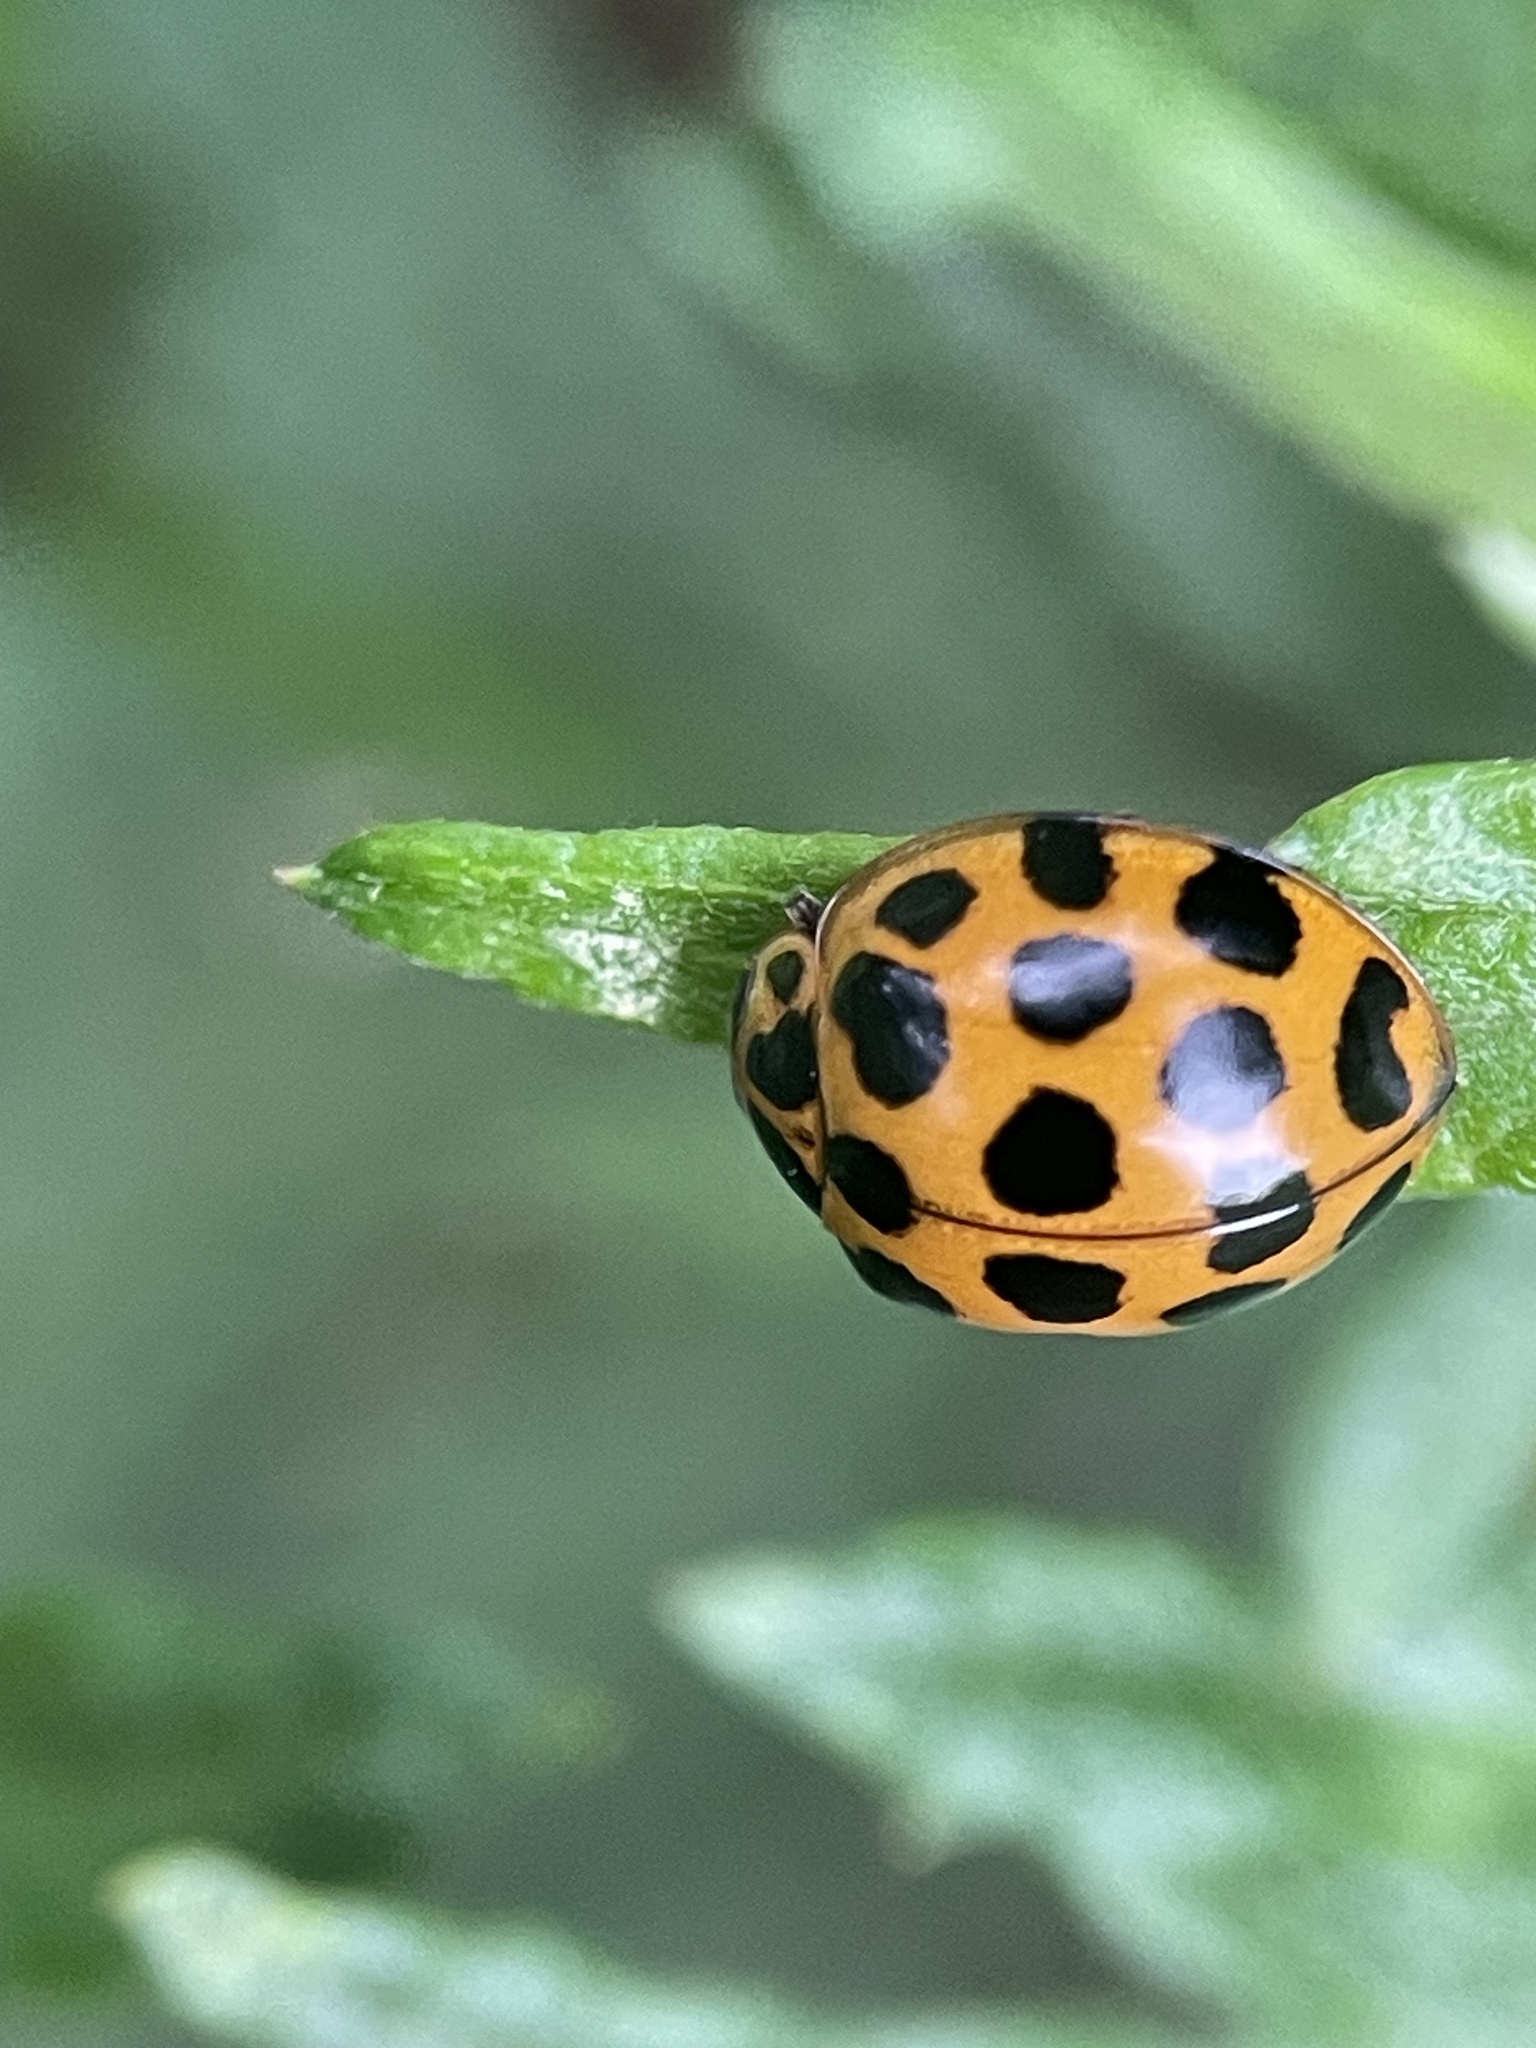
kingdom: Animalia
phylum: Arthropoda
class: Insecta
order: Coleoptera
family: Coccinellidae
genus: Harmonia
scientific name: Harmonia conformis
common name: Common spotted ladybird beetle
